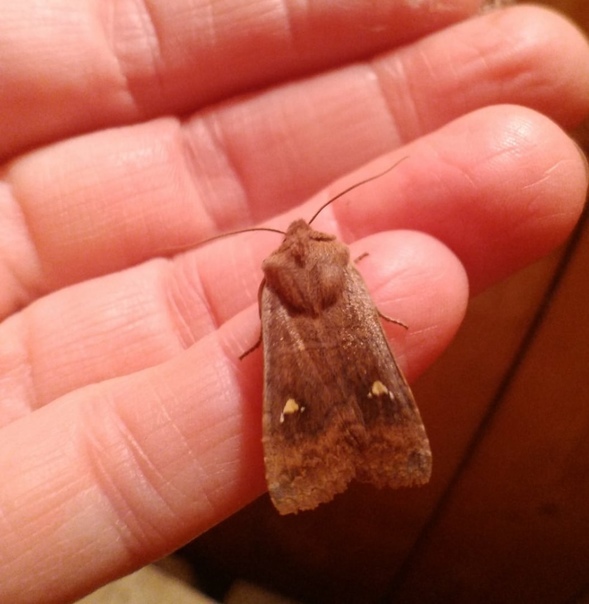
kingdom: Animalia
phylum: Arthropoda
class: Insecta
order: Lepidoptera
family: Noctuidae
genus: Eupsilia
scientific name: Eupsilia transversa
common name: Satellite
